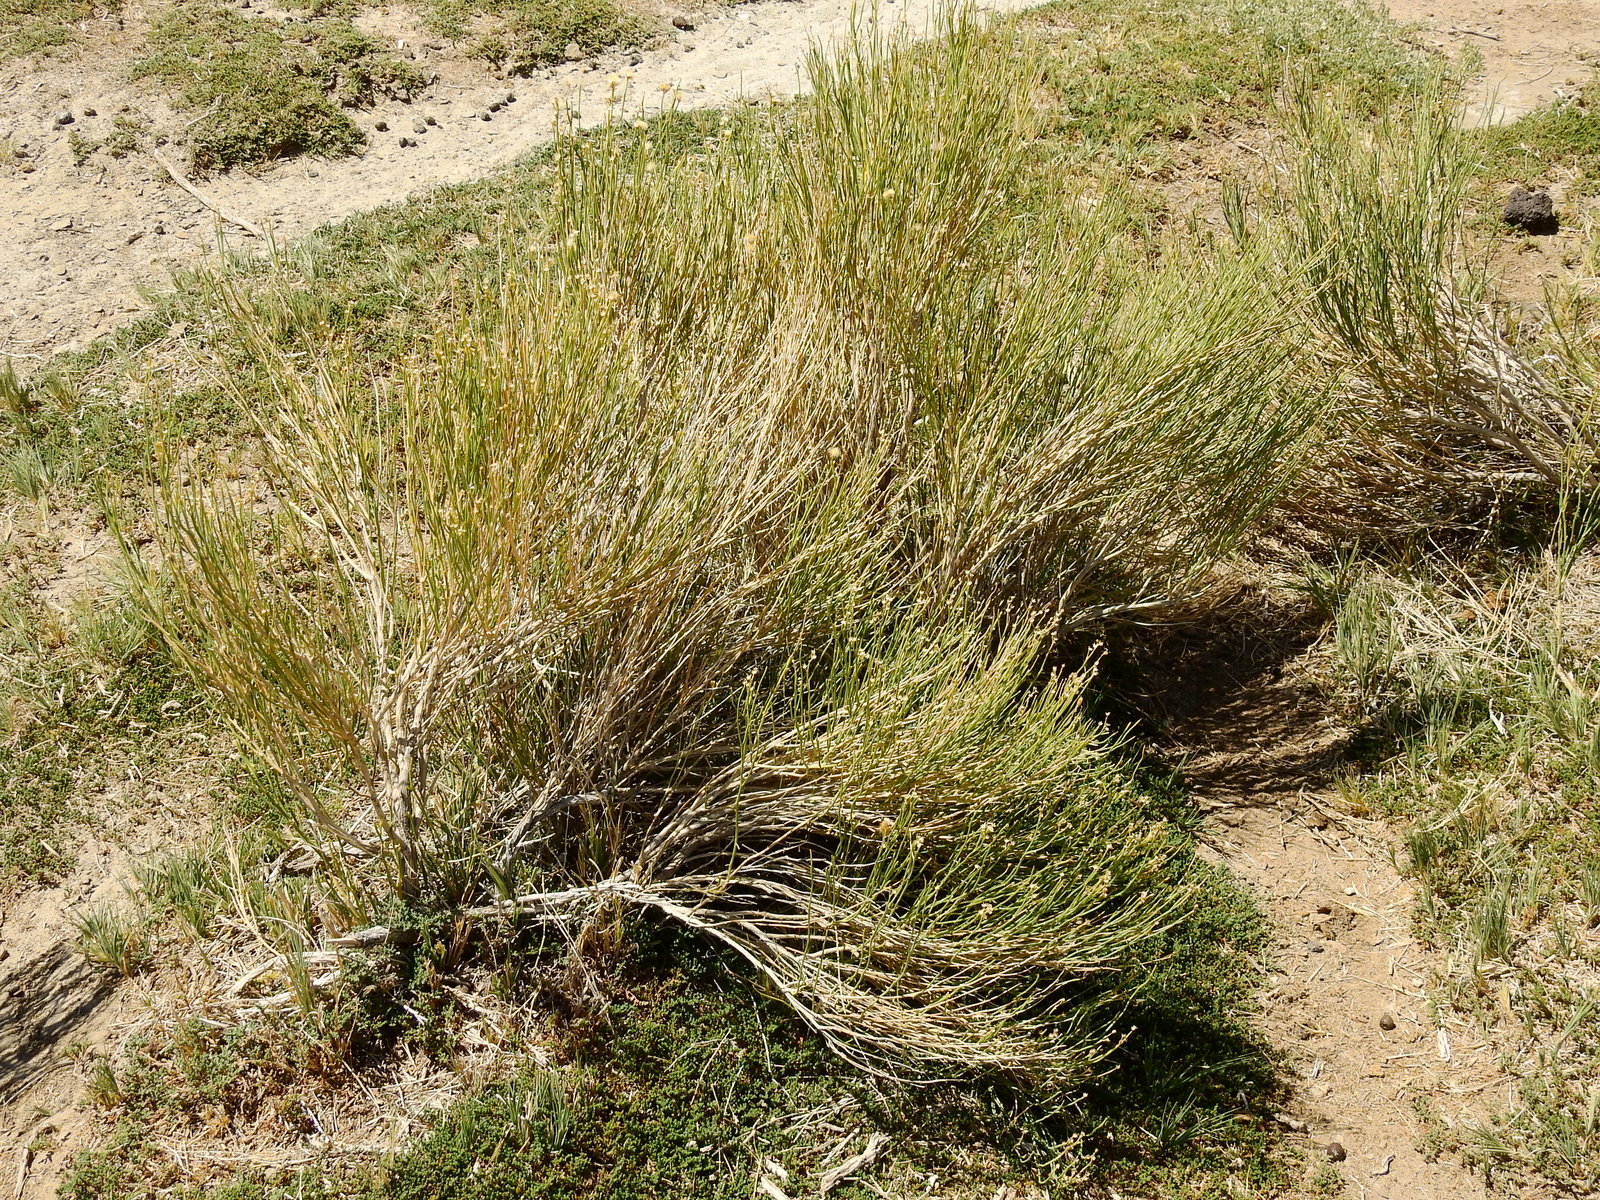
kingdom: Plantae
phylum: Tracheophyta
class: Magnoliopsida
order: Asterales
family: Asteraceae
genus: Pseudobaccharis
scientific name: Pseudobaccharis spartioides
